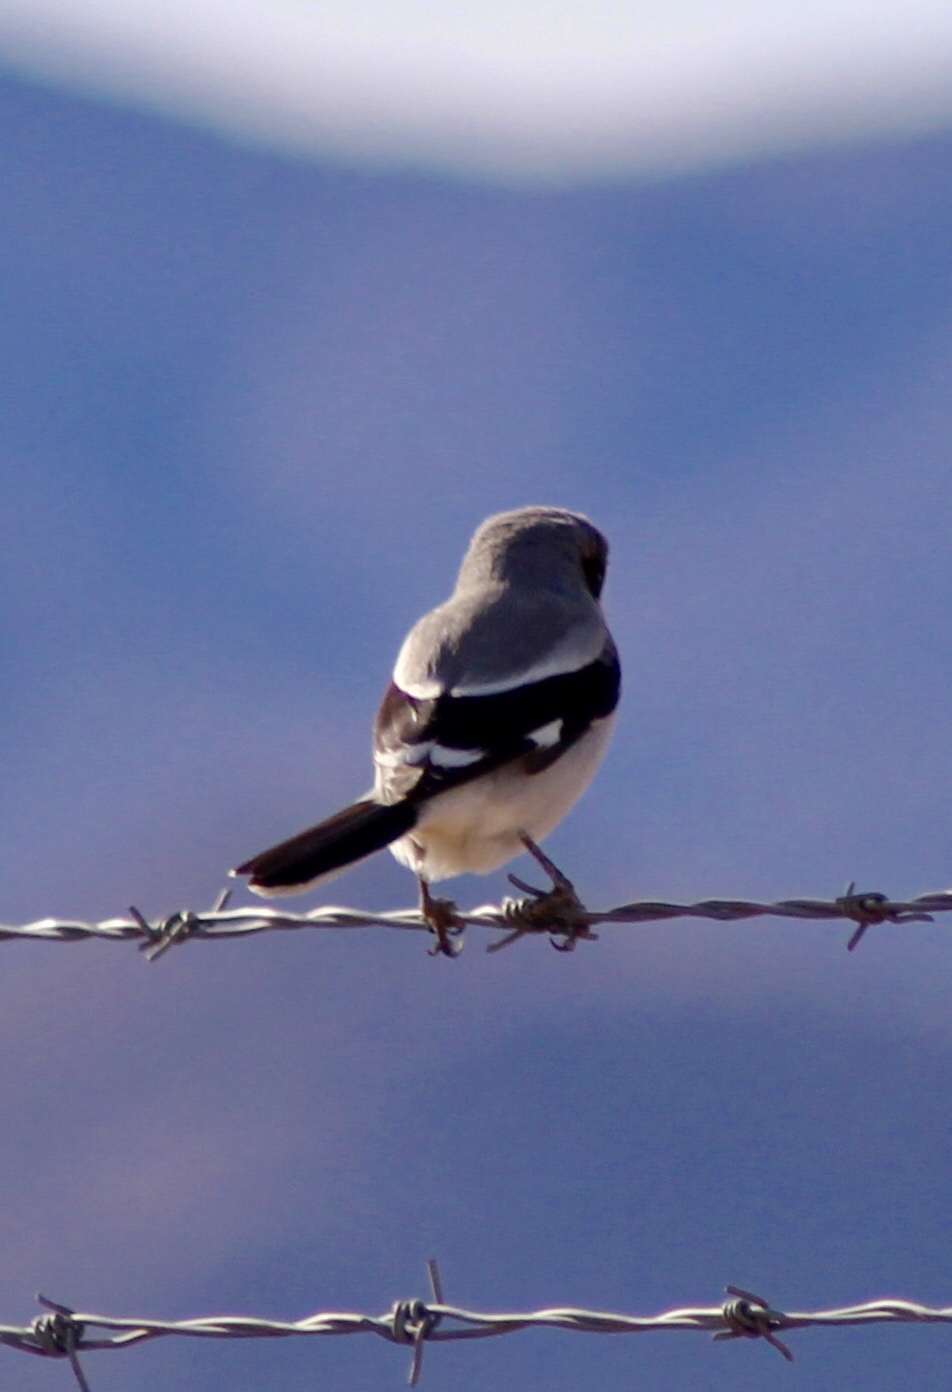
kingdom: Animalia
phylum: Chordata
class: Aves
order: Passeriformes
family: Laniidae
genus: Lanius
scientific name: Lanius ludovicianus
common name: Loggerhead shrike
